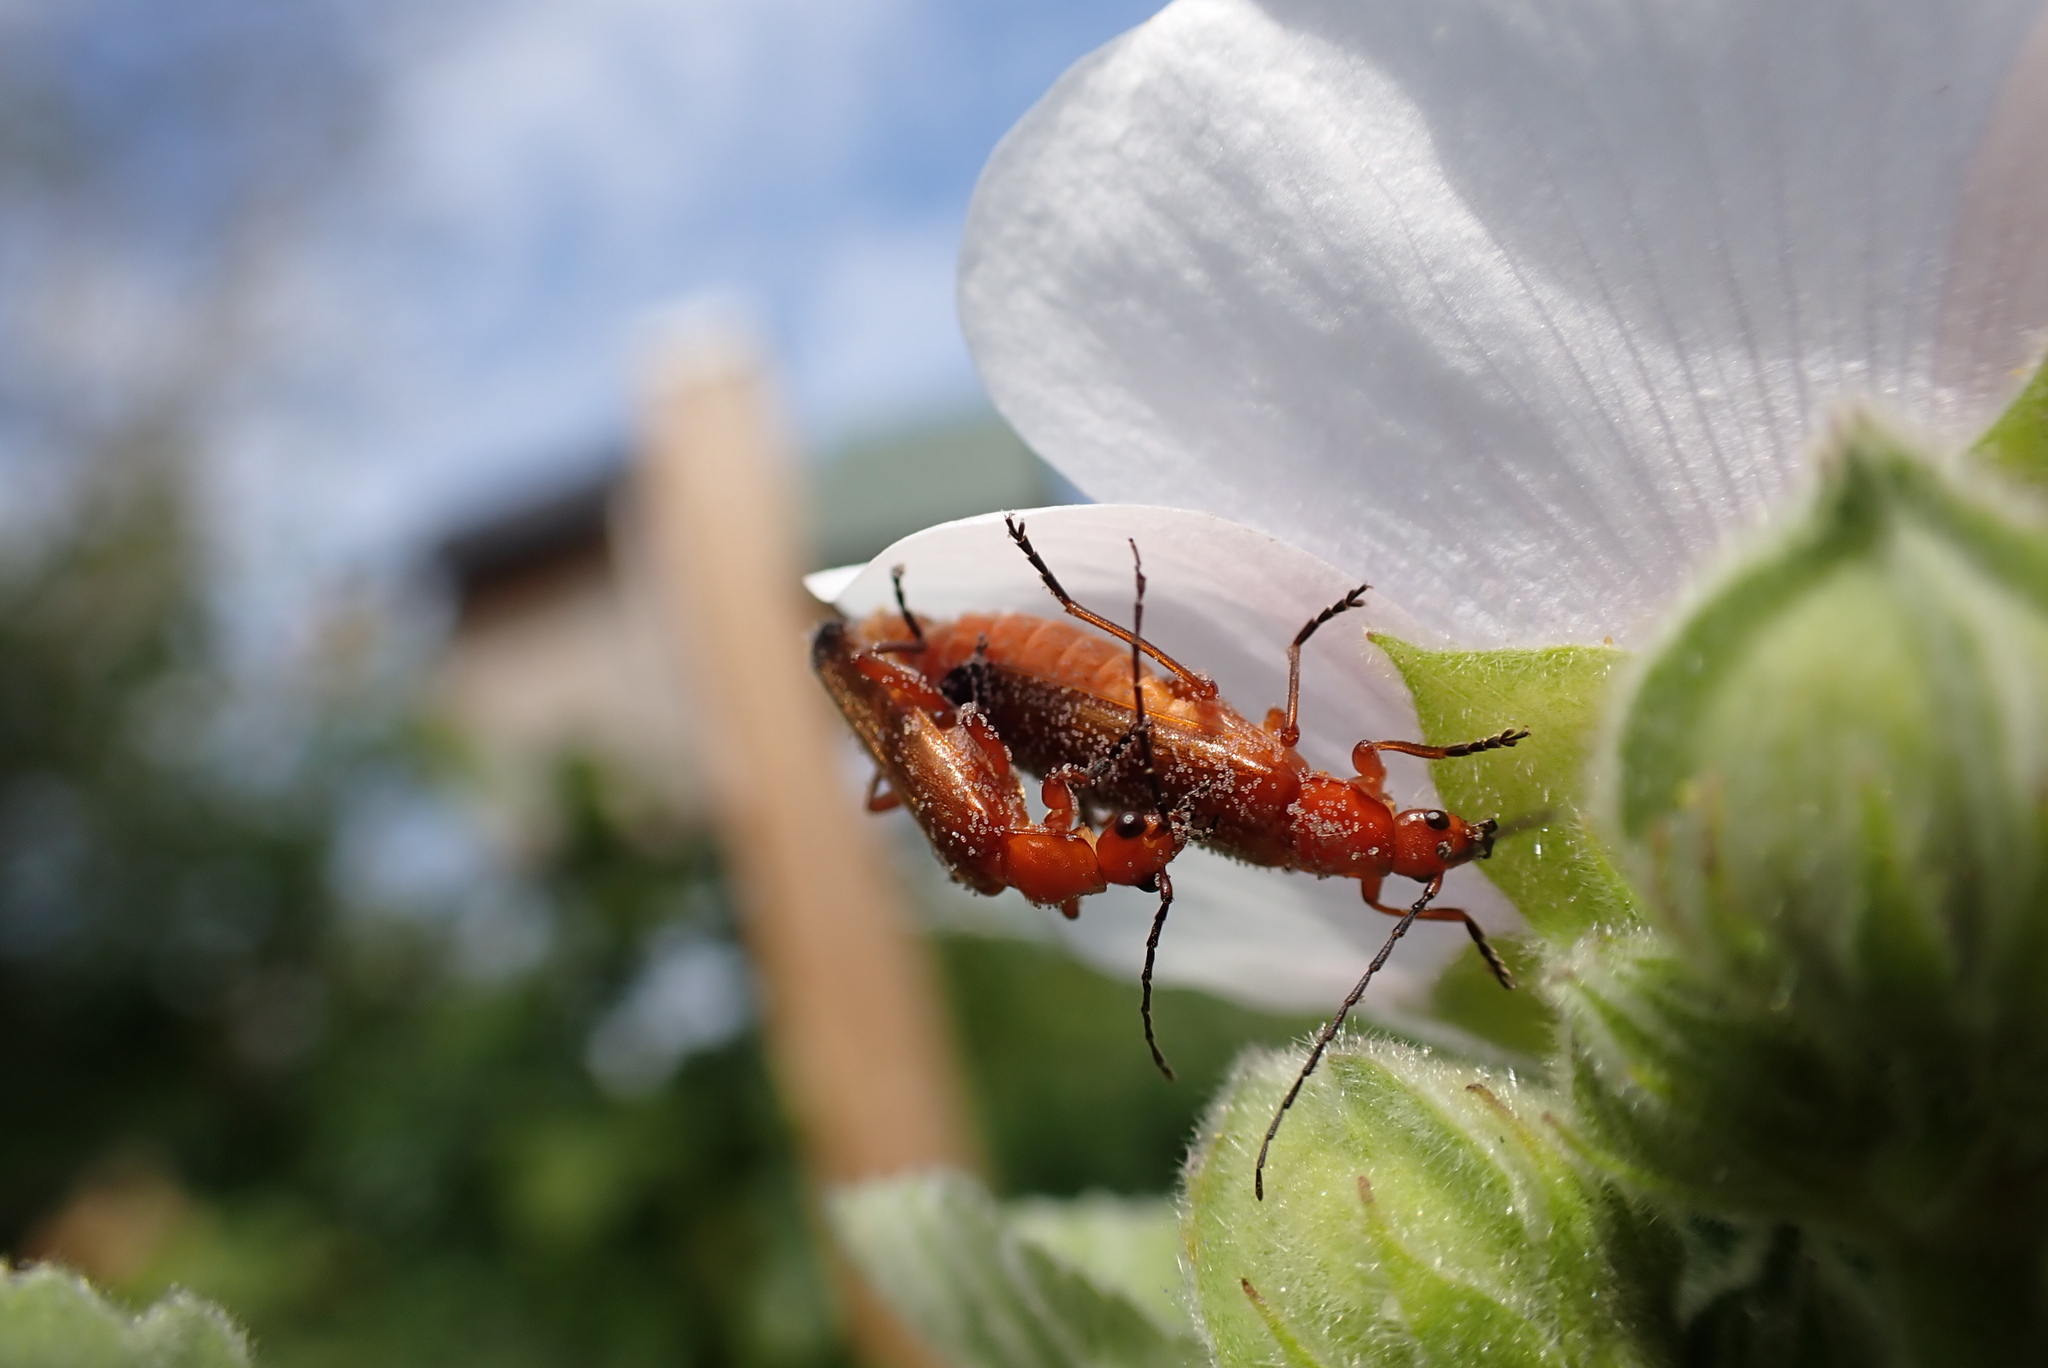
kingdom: Animalia
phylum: Arthropoda
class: Insecta
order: Coleoptera
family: Cantharidae
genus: Rhagonycha
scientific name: Rhagonycha fulva
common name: Common red soldier beetle
